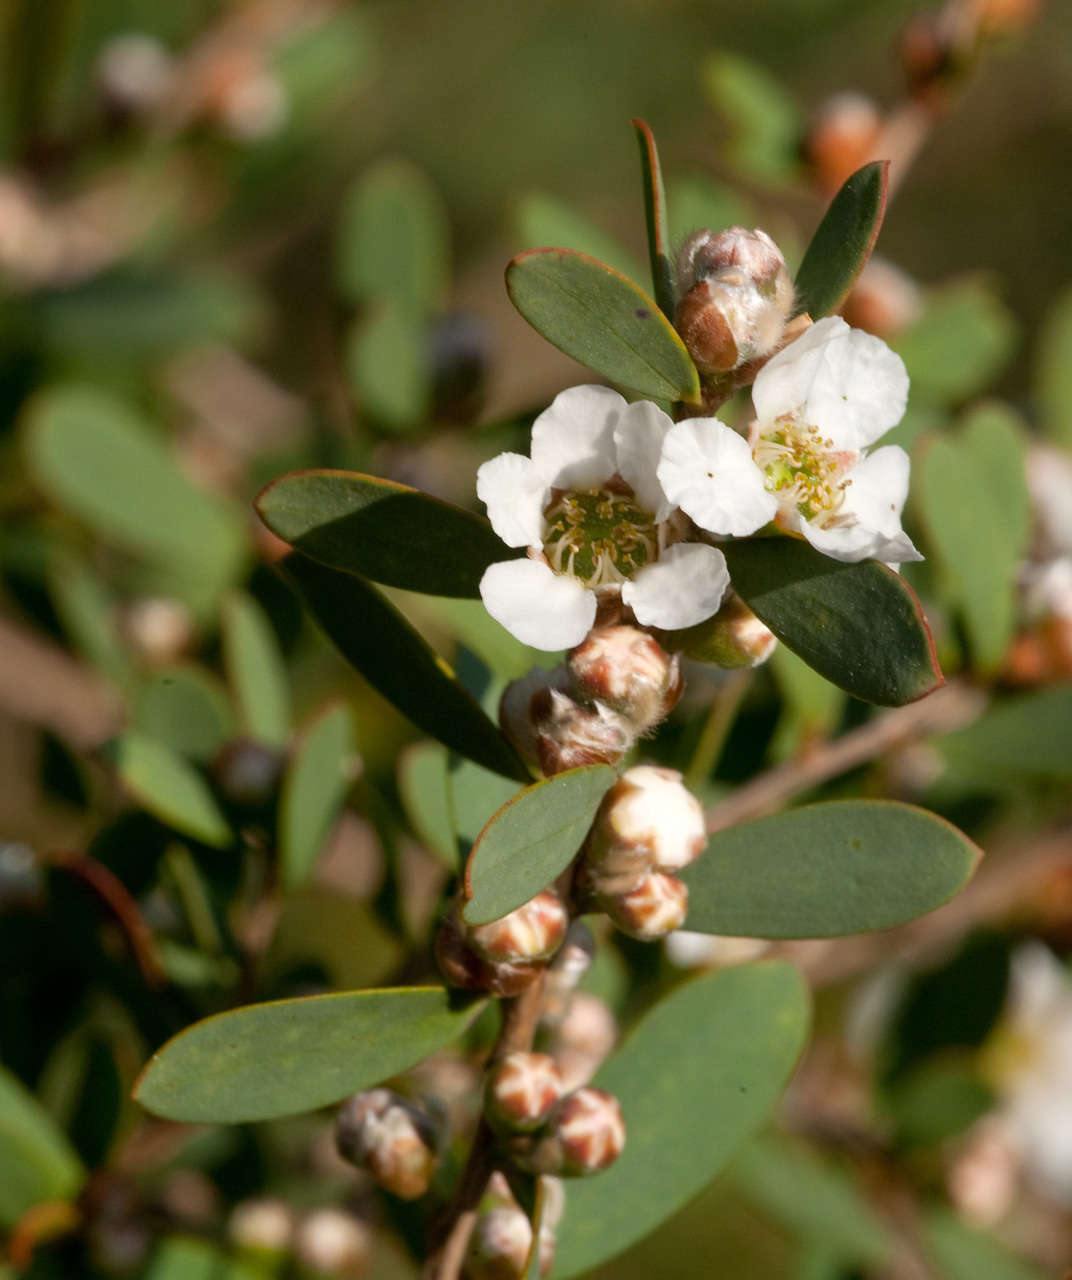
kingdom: Plantae
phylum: Tracheophyta
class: Magnoliopsida
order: Myrtales
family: Myrtaceae
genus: Leptospermum
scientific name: Leptospermum laevigatum
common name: Australian teatree
